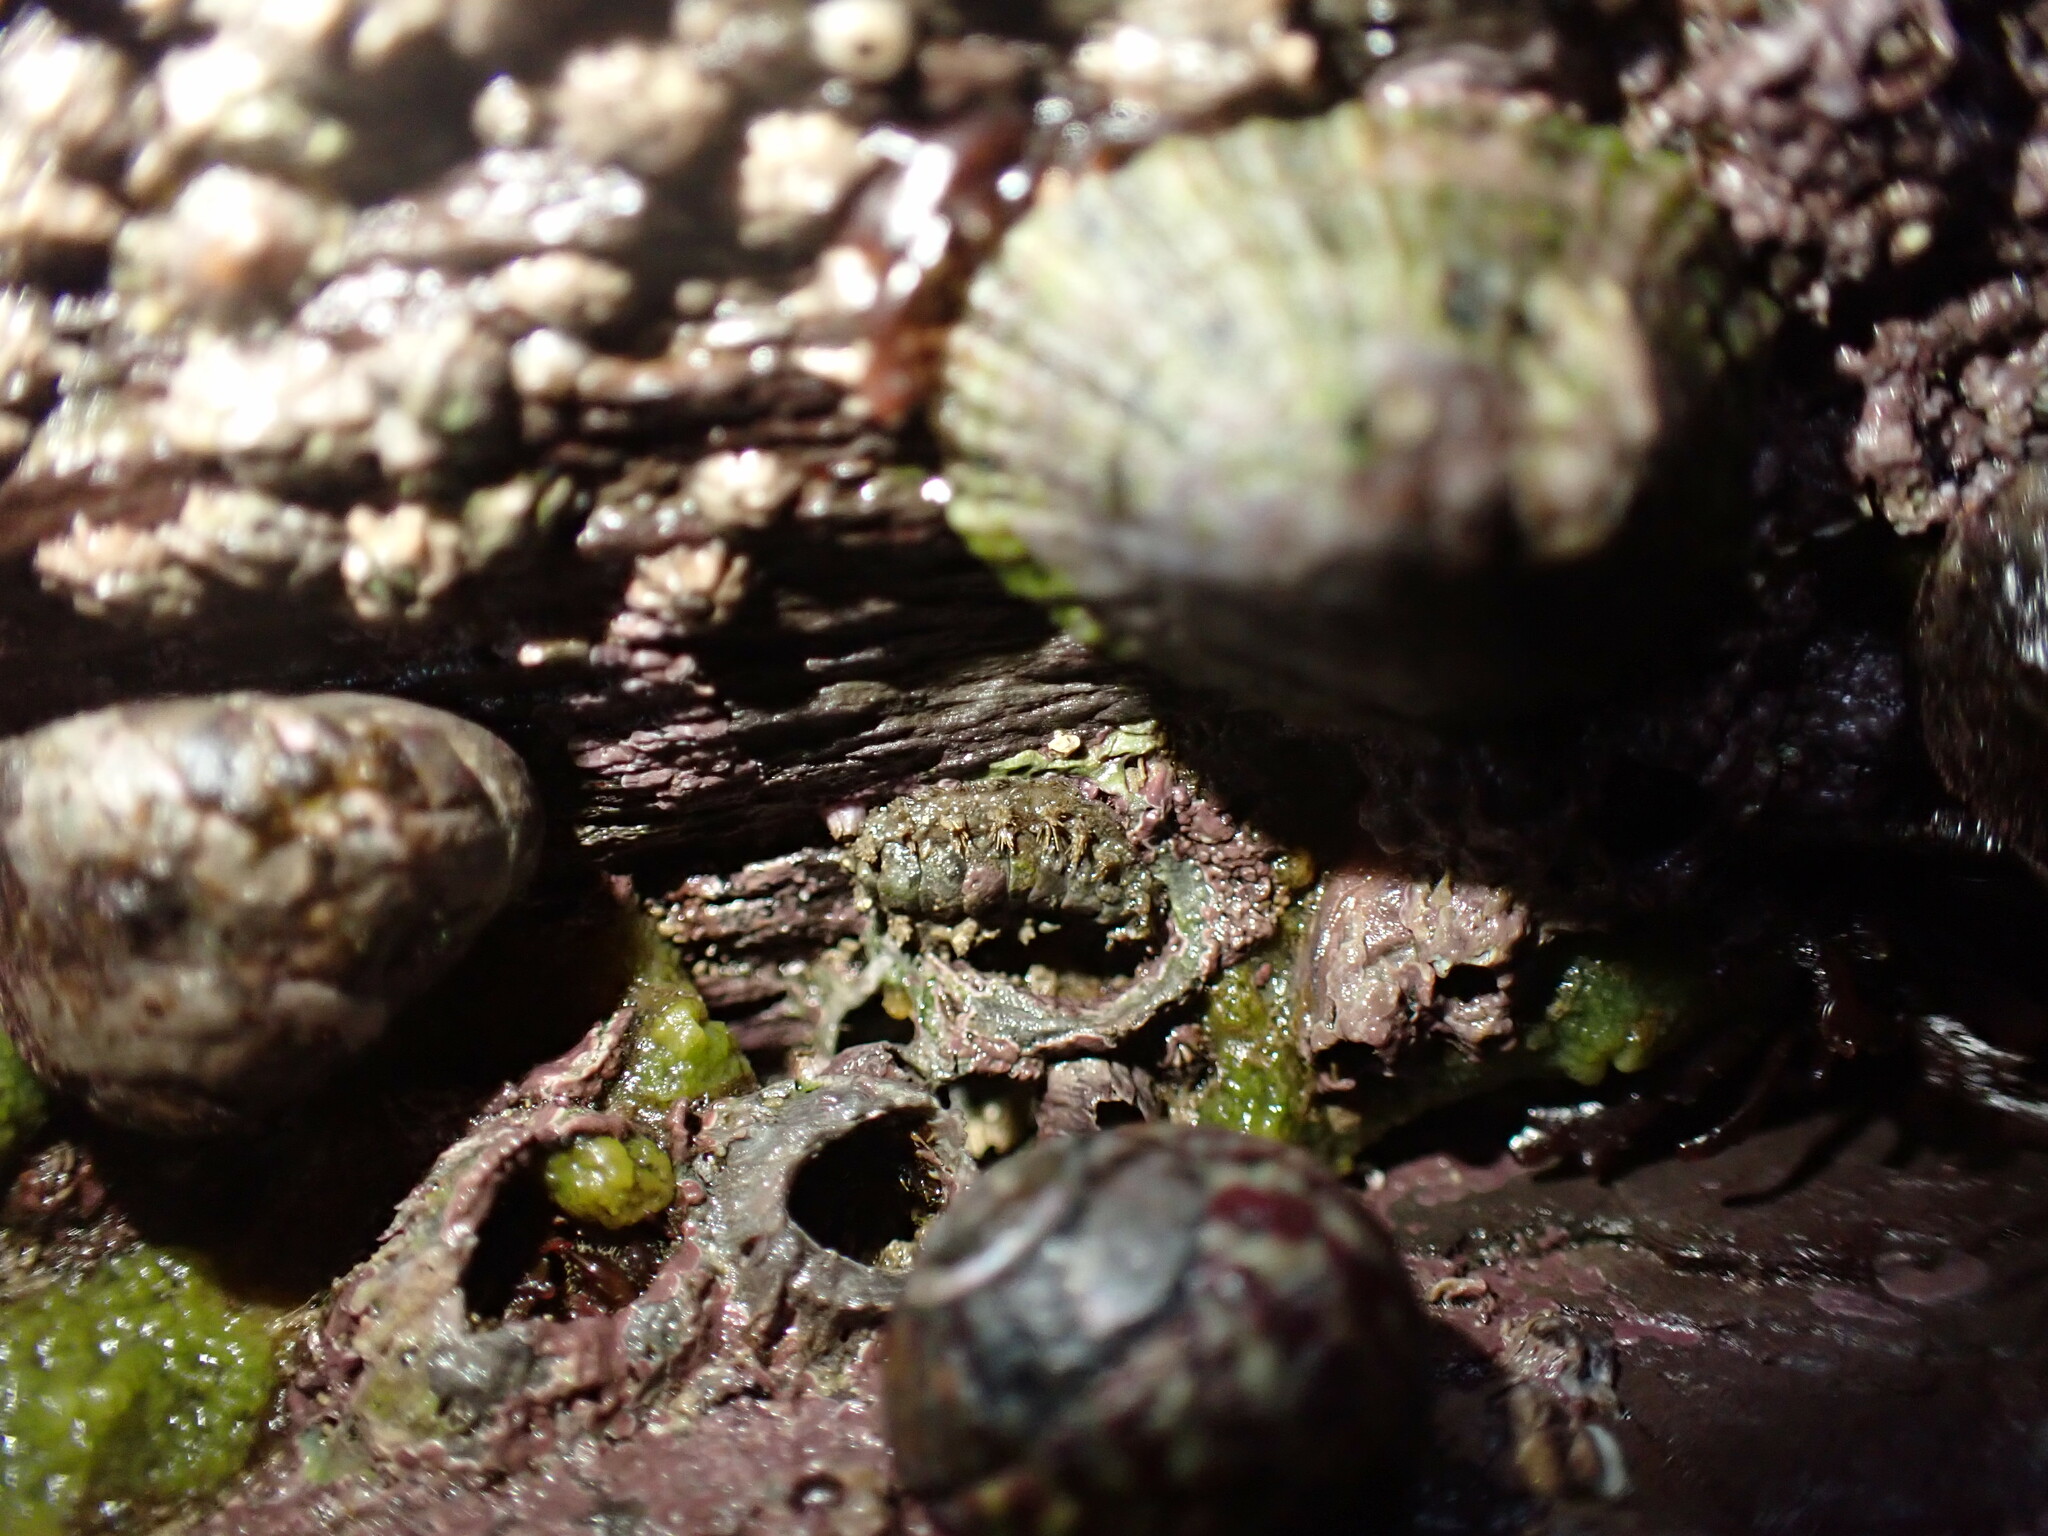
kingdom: Animalia
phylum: Mollusca
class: Polyplacophora
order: Chitonida
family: Acanthochitonidae
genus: Acanthochitona
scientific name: Acanthochitona crinita
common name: Bristly mail chiton
